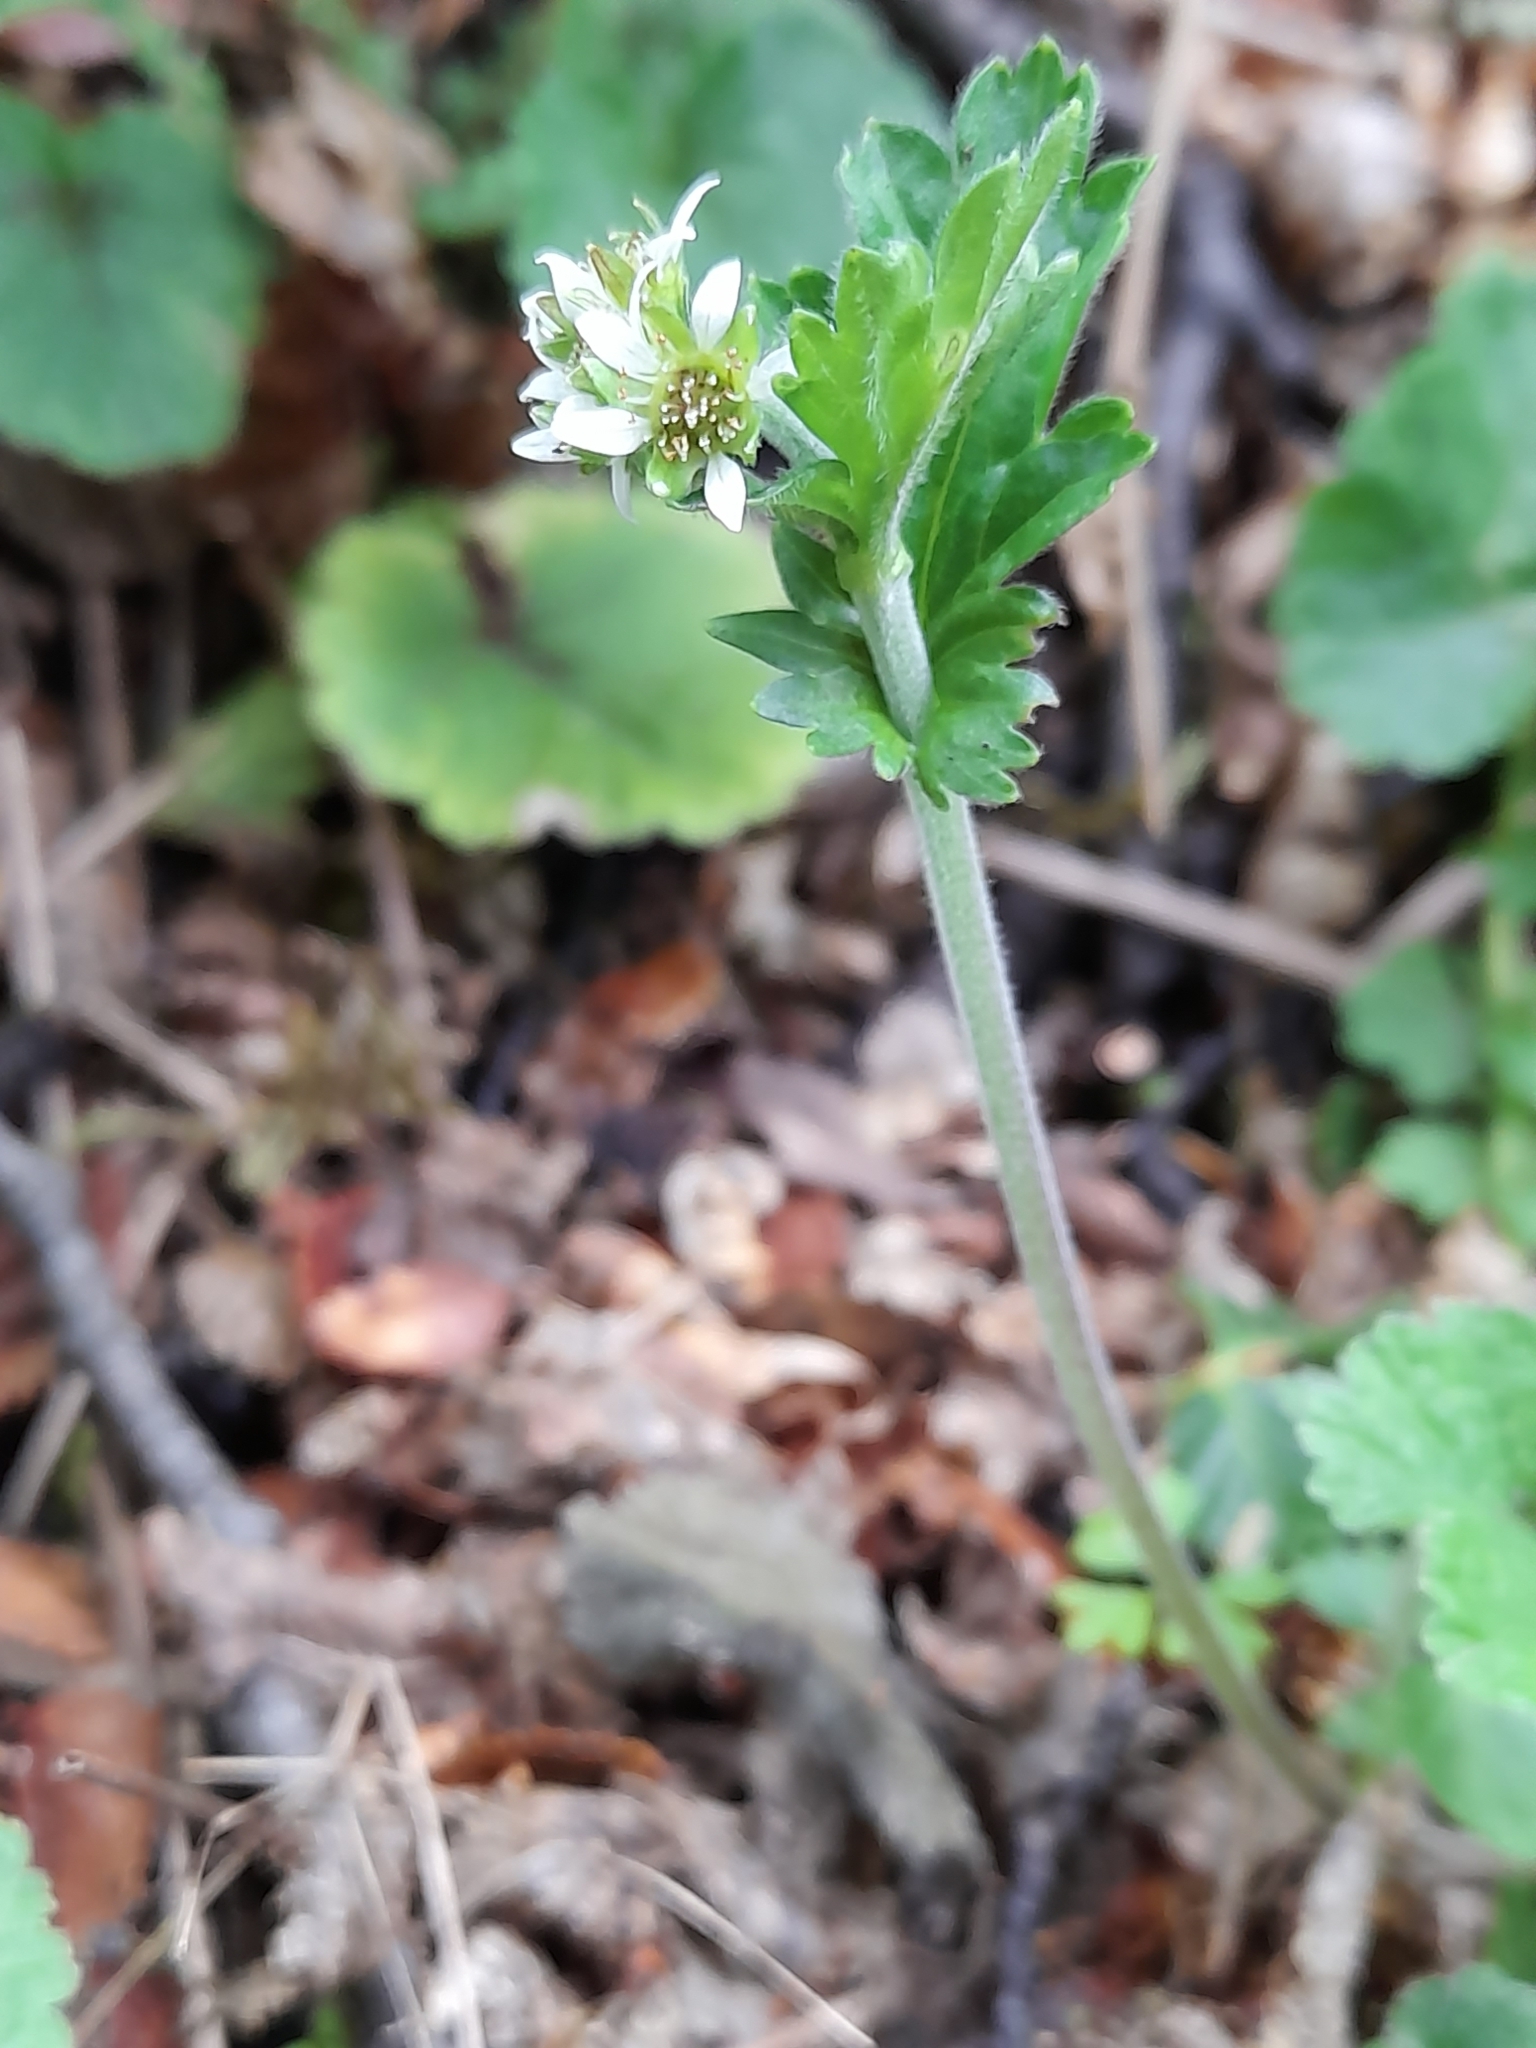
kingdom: Plantae
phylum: Tracheophyta
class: Magnoliopsida
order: Rosales
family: Rosaceae
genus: Geum
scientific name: Geum involucratum
